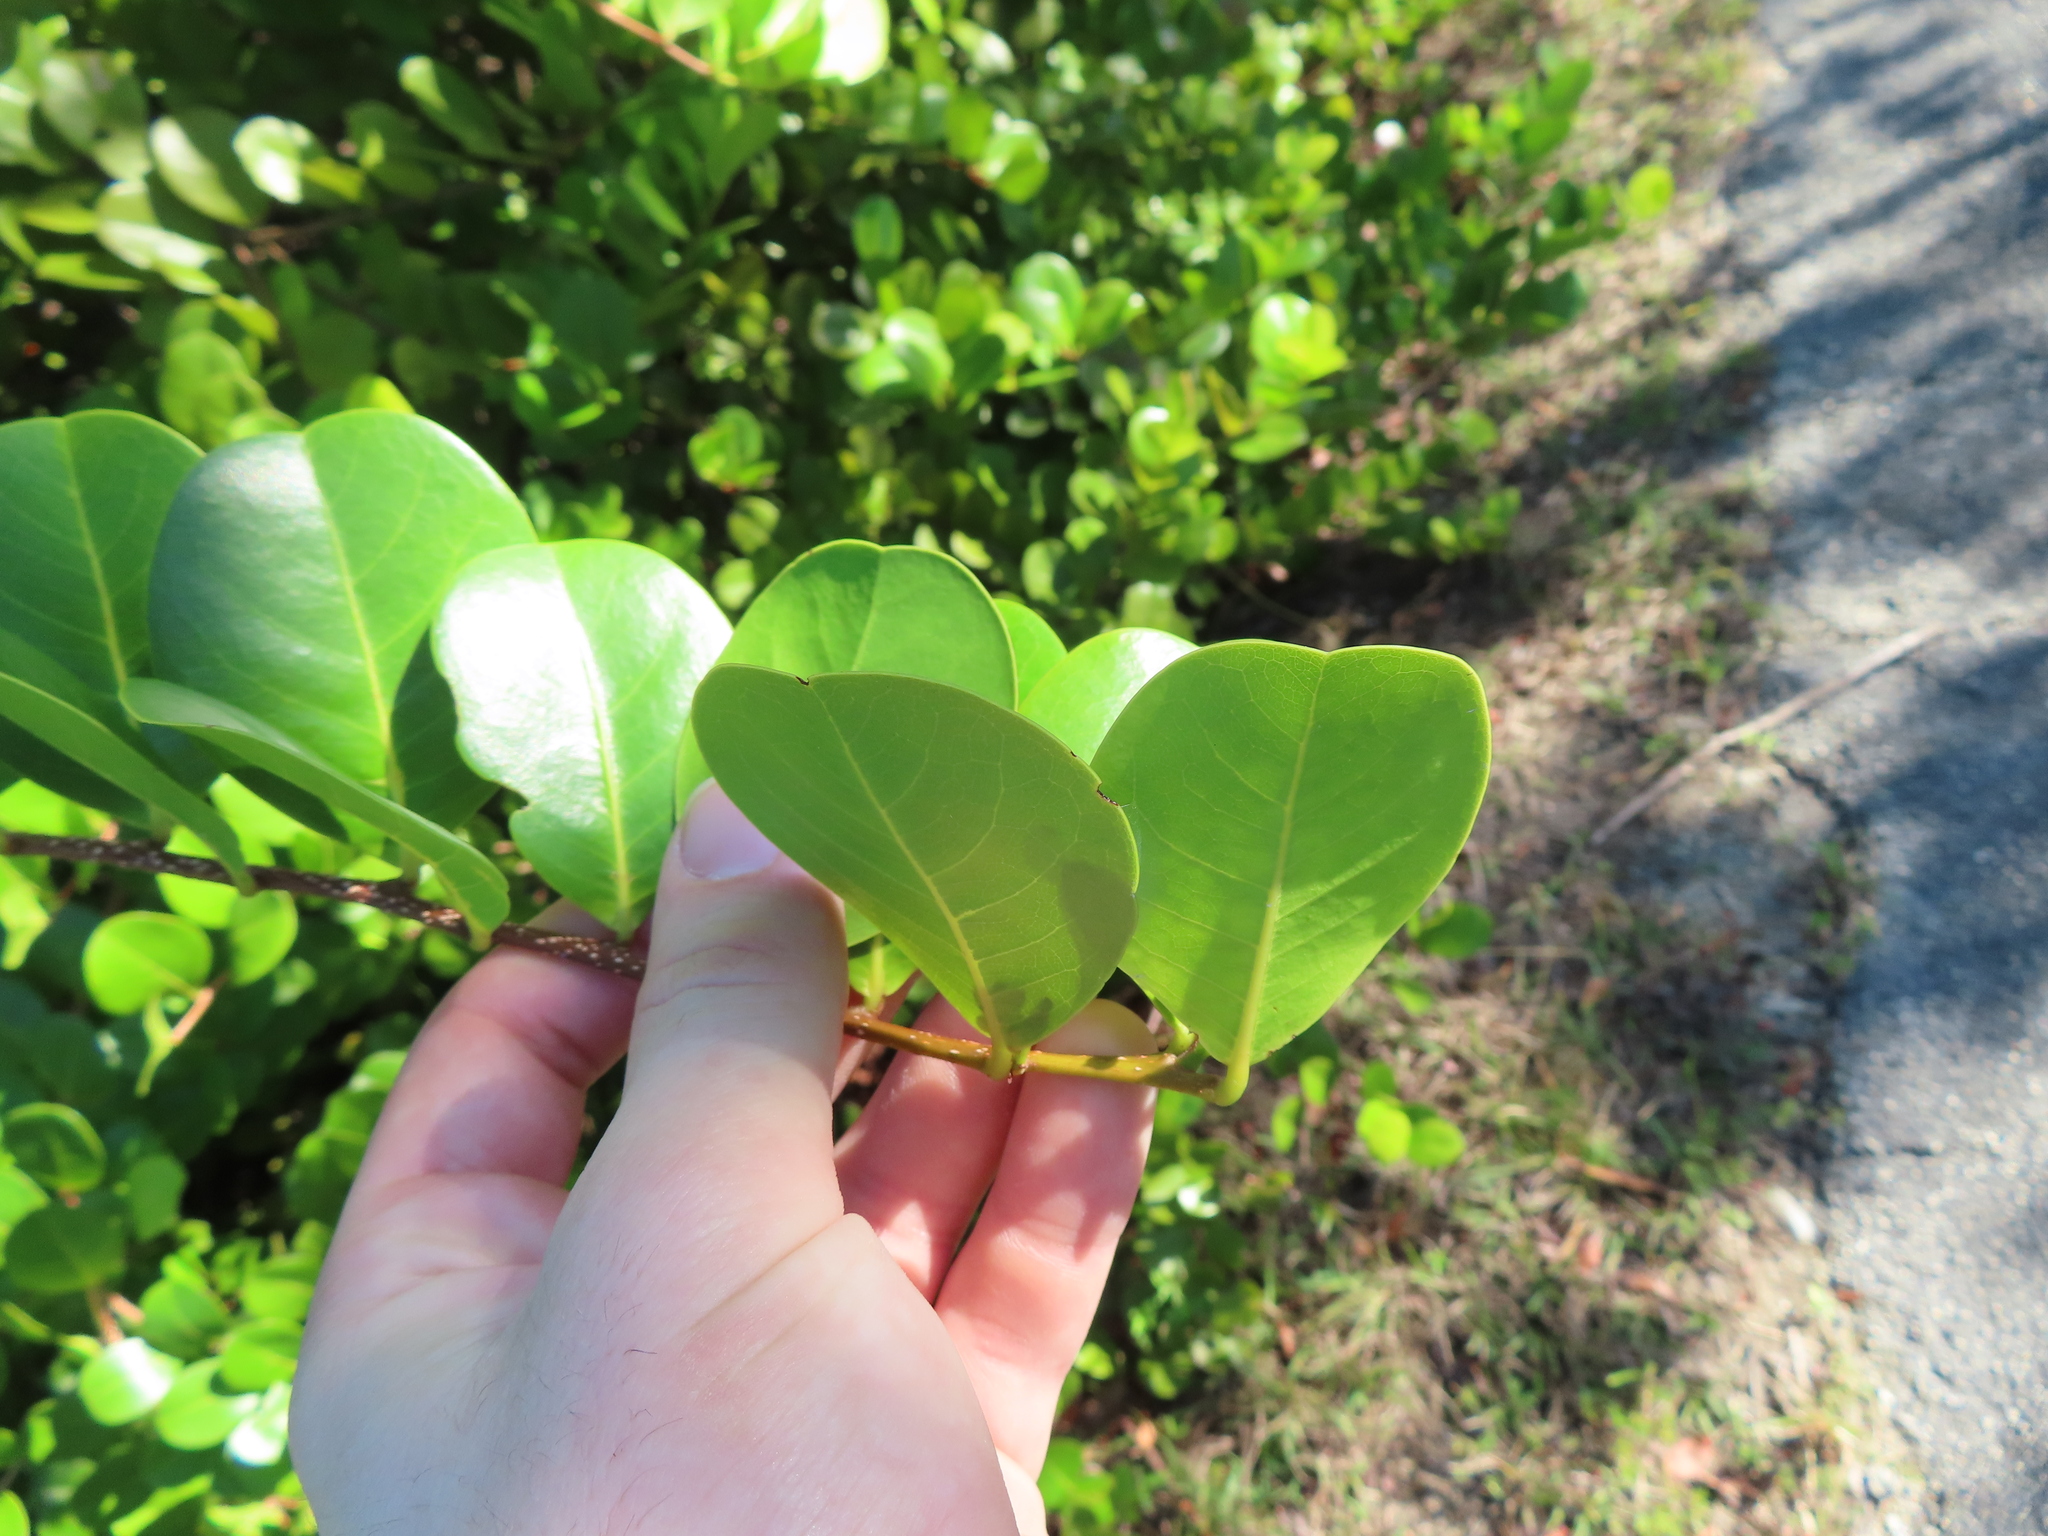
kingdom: Plantae
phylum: Tracheophyta
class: Magnoliopsida
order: Malpighiales
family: Chrysobalanaceae
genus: Chrysobalanus
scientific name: Chrysobalanus icaco
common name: Coco plum
